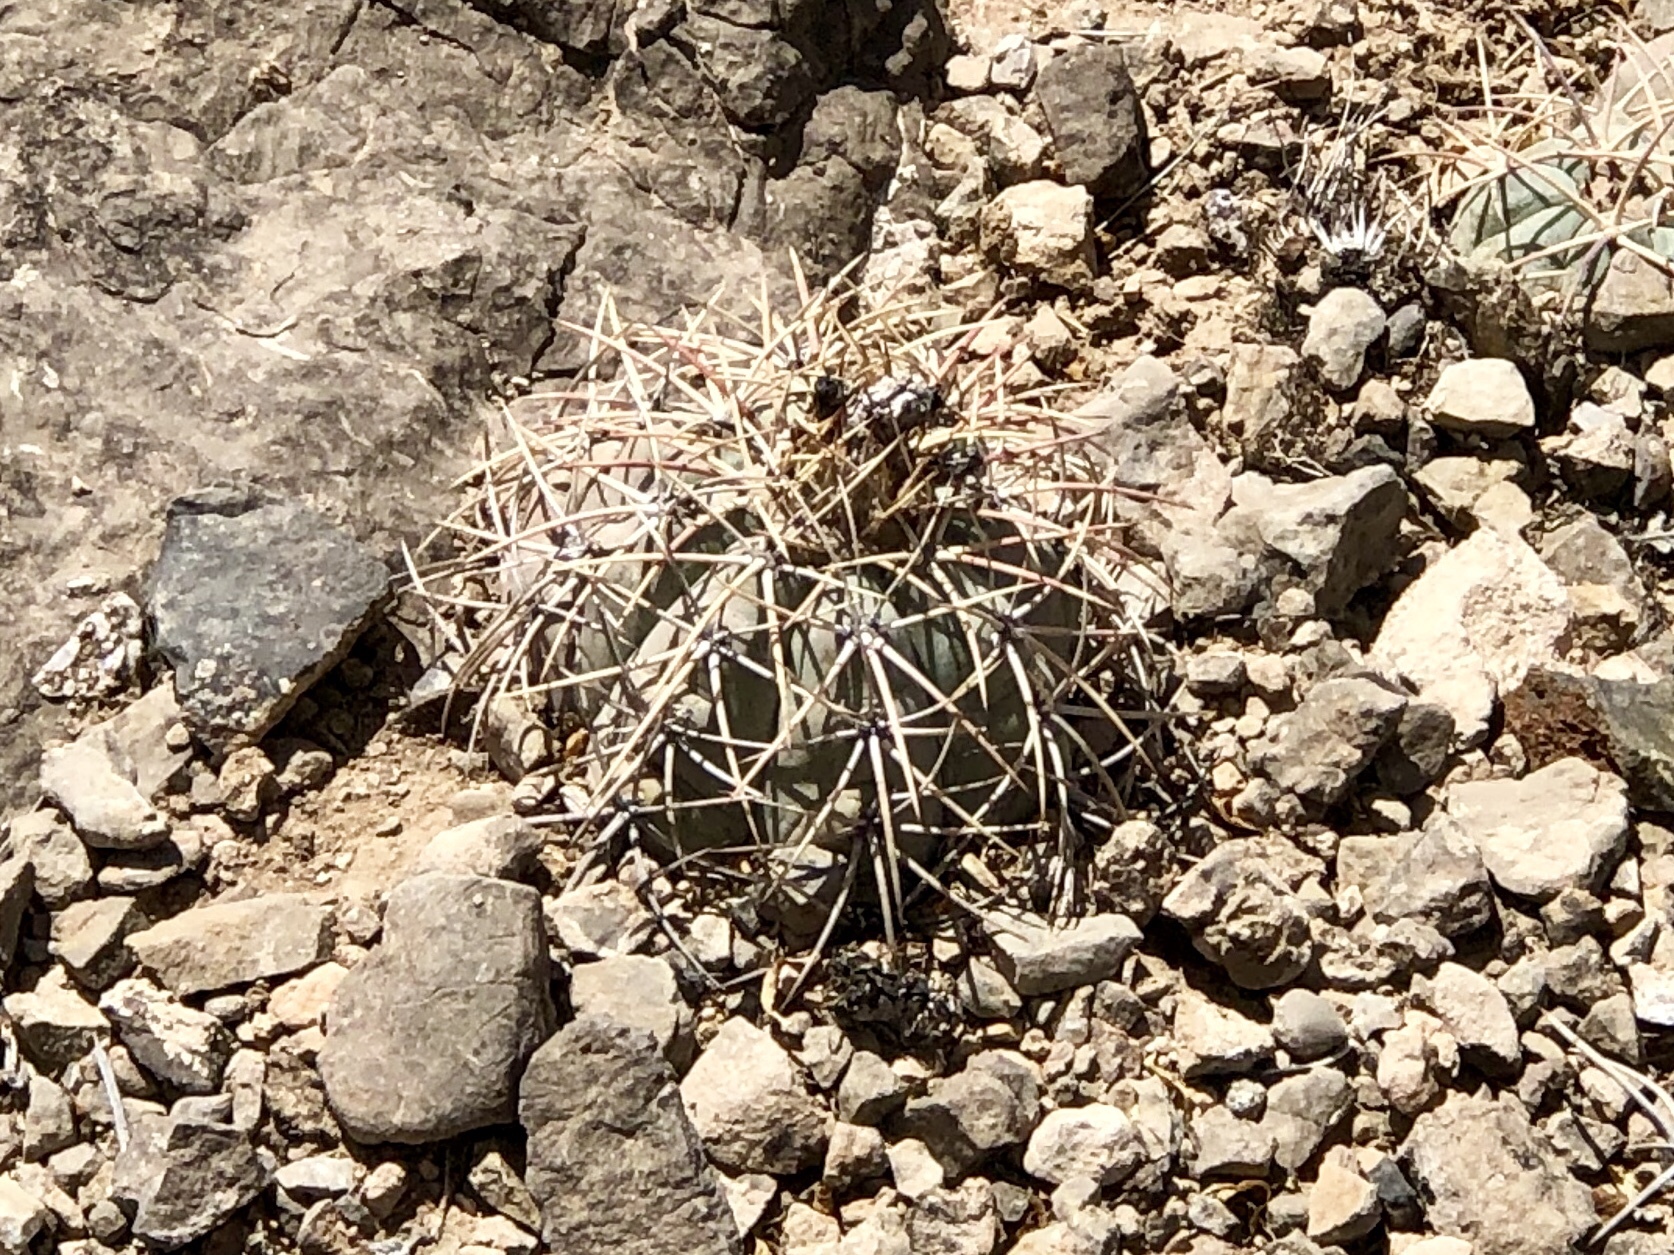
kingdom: Plantae
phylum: Tracheophyta
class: Magnoliopsida
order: Caryophyllales
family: Cactaceae
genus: Echinocactus
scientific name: Echinocactus horizonthalonius
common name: Devilshead
